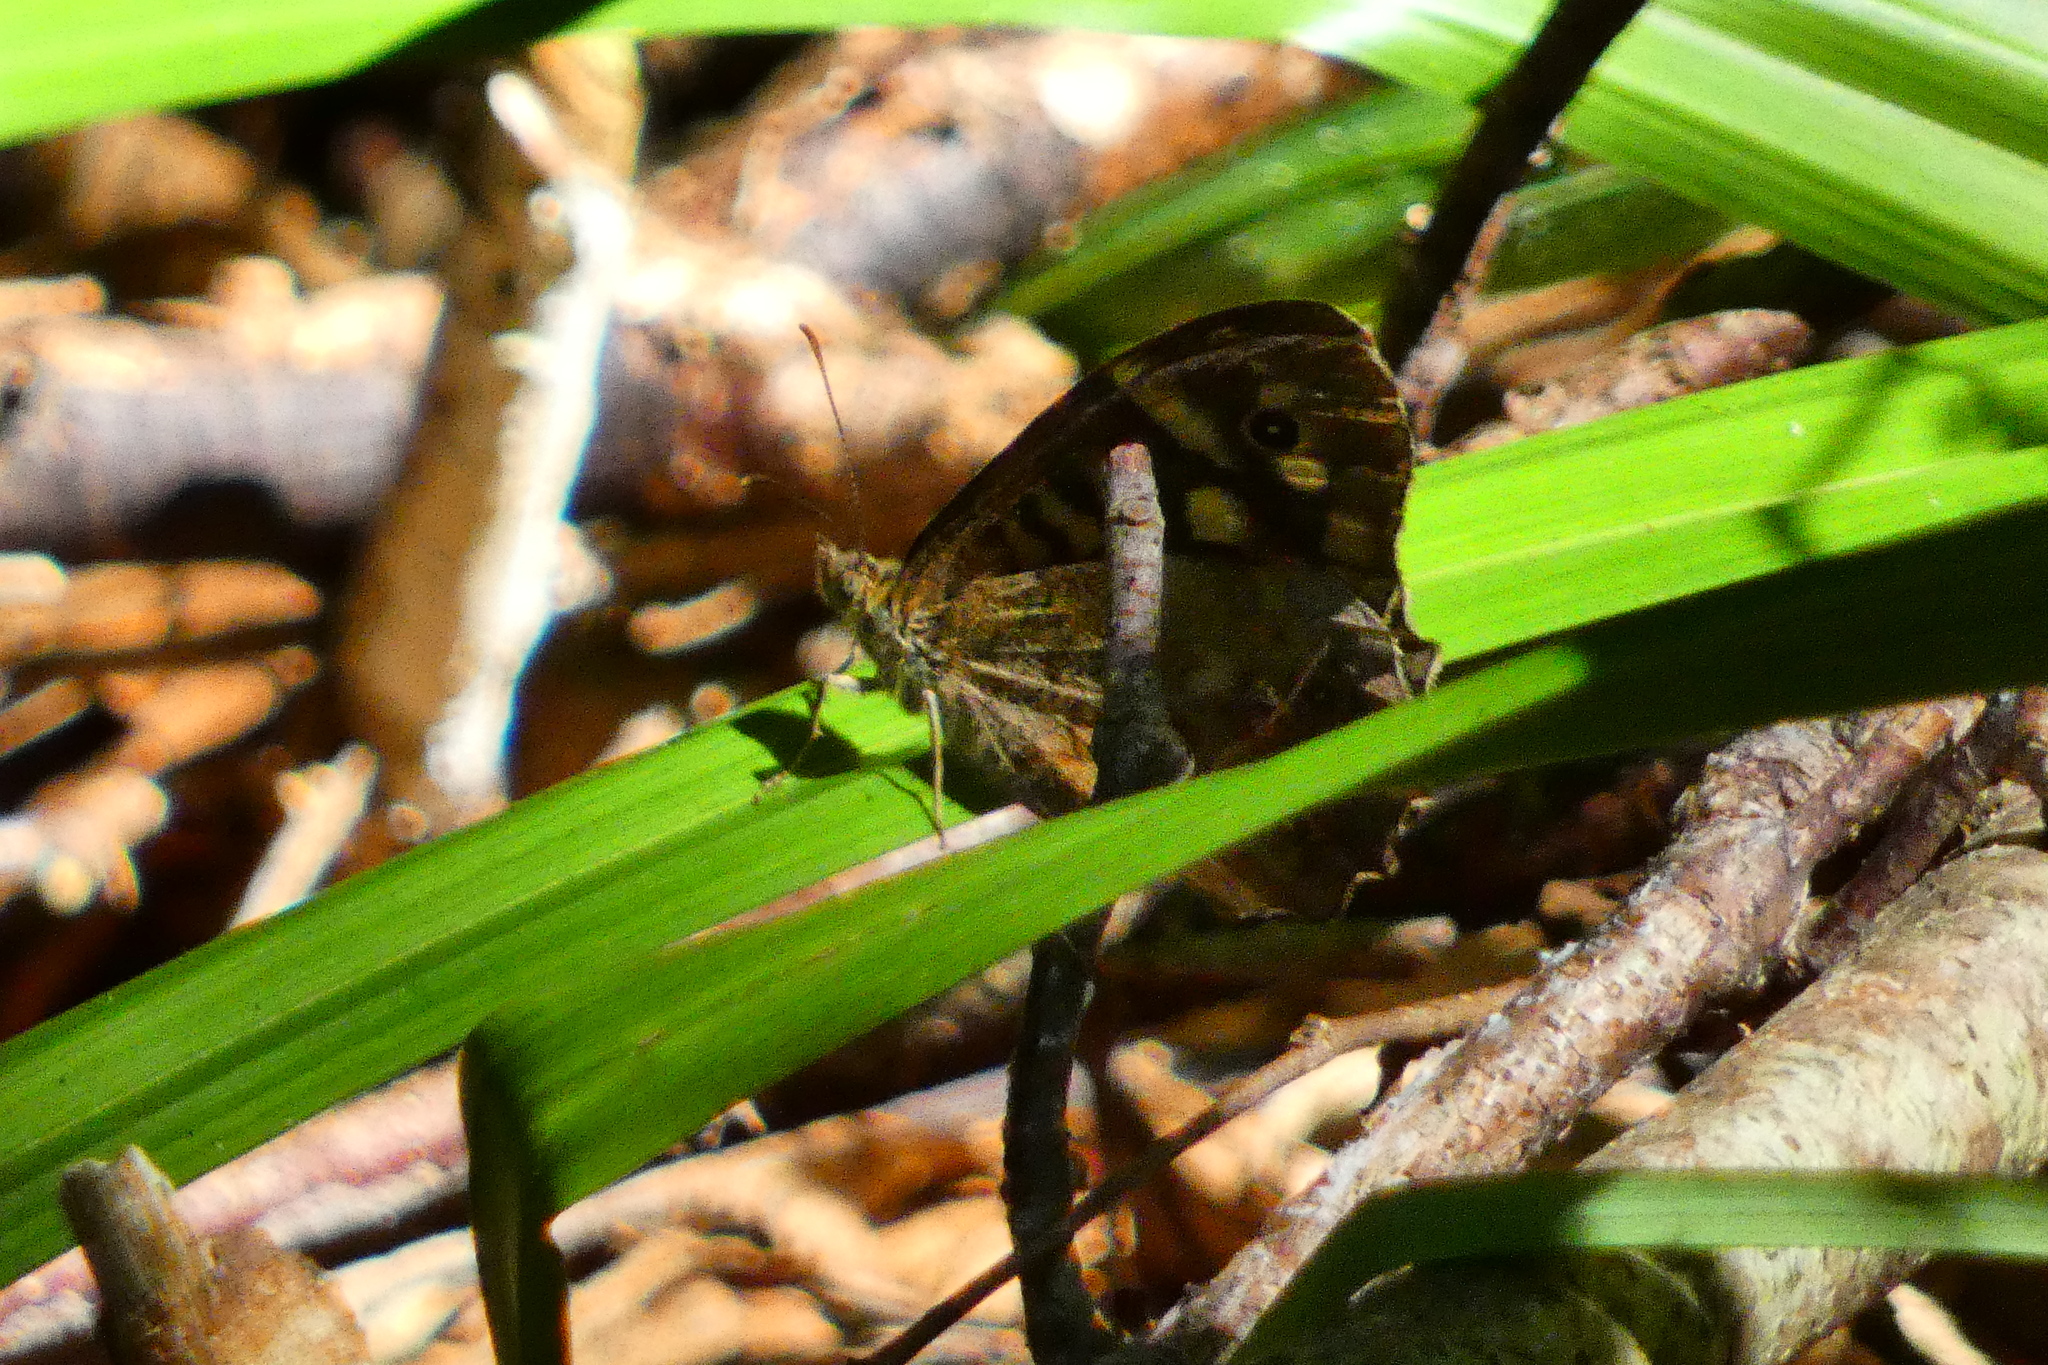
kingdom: Animalia
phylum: Arthropoda
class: Insecta
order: Lepidoptera
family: Nymphalidae
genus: Pararge
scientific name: Pararge aegeria
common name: Speckled wood
